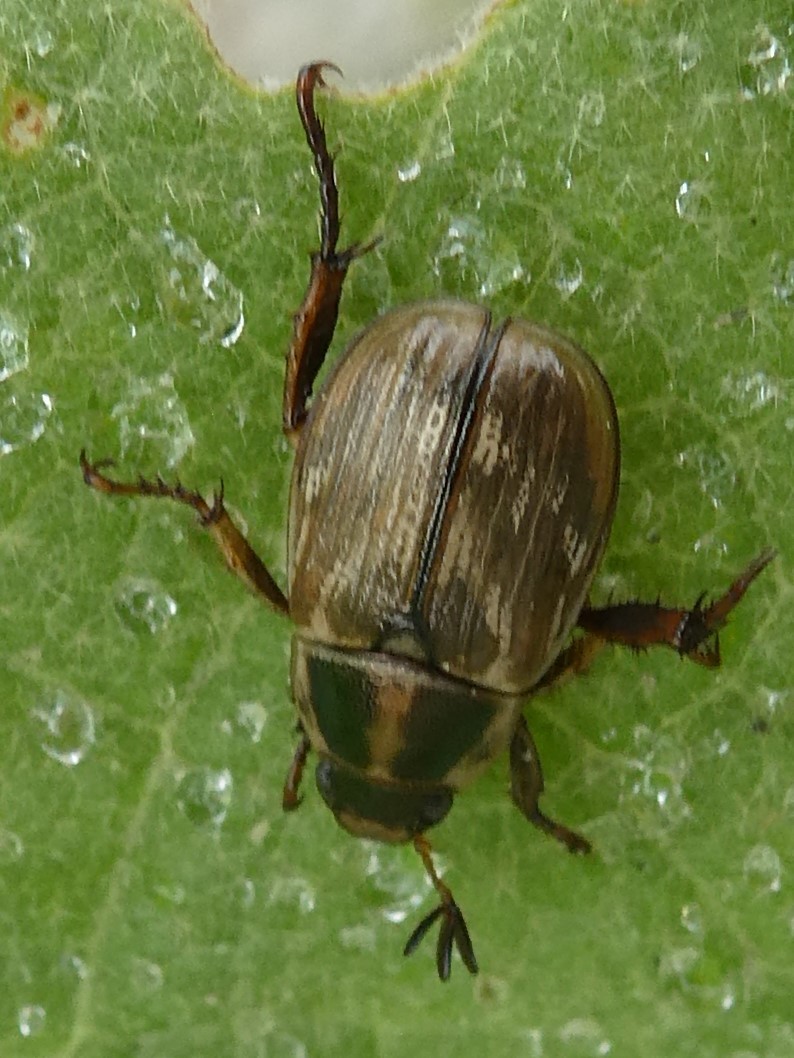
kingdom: Animalia
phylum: Arthropoda
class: Insecta
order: Coleoptera
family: Scarabaeidae
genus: Exomala
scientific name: Exomala orientalis
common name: Oriental beetle
